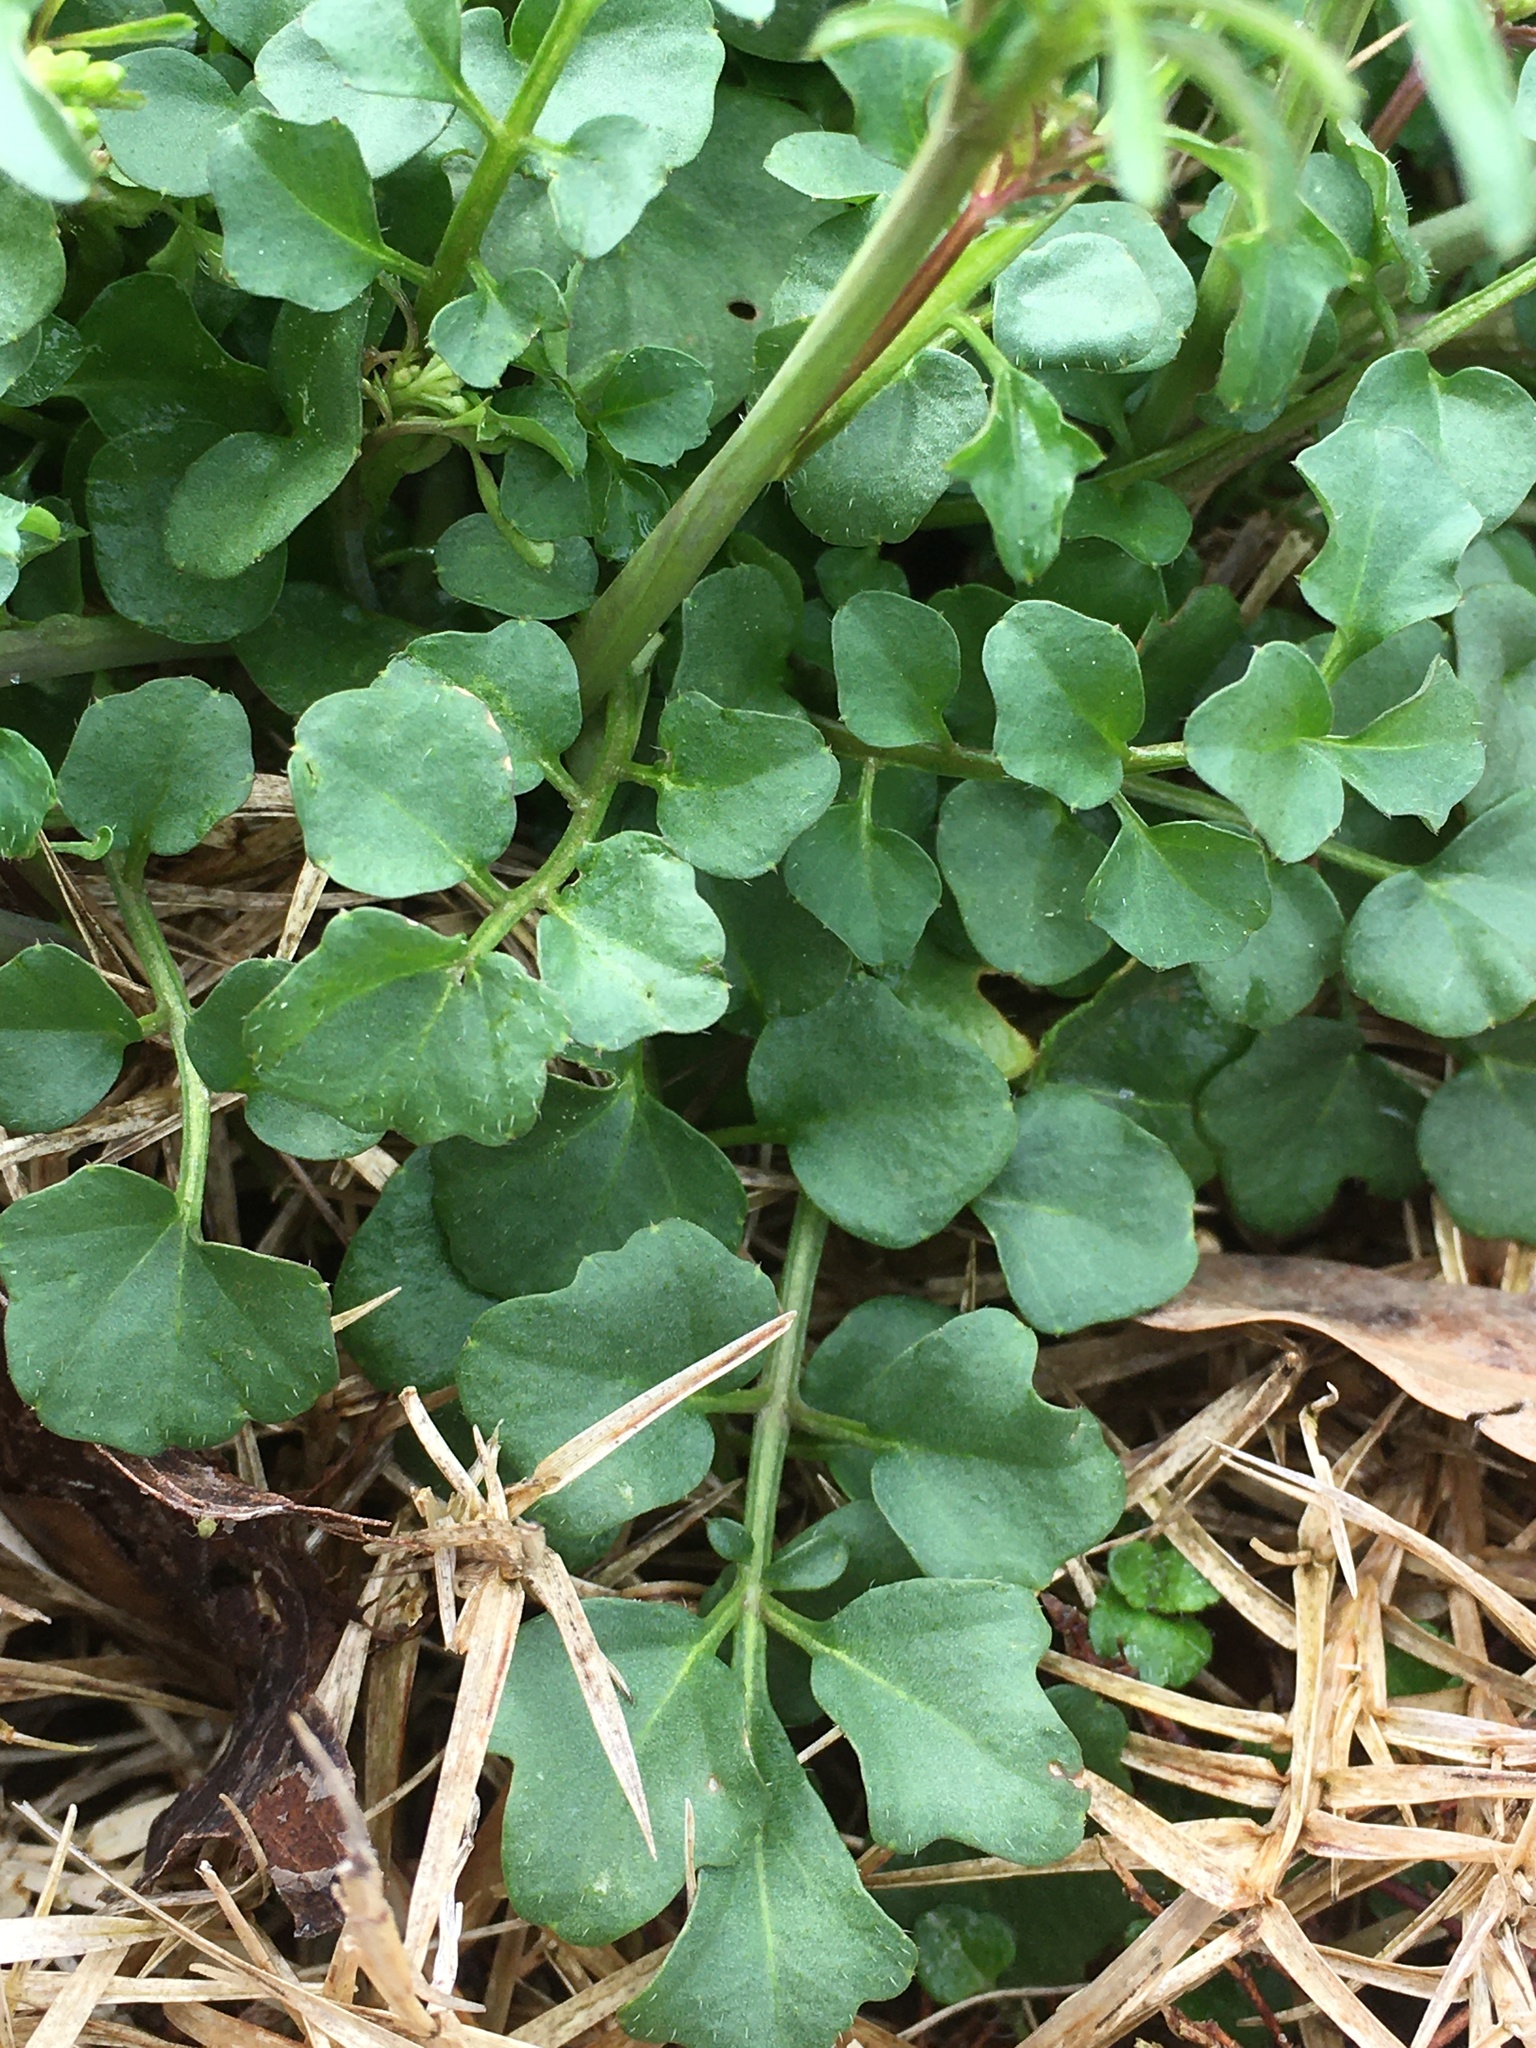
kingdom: Plantae
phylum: Tracheophyta
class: Magnoliopsida
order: Brassicales
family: Brassicaceae
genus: Cardamine
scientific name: Cardamine hirsuta
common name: Hairy bittercress
